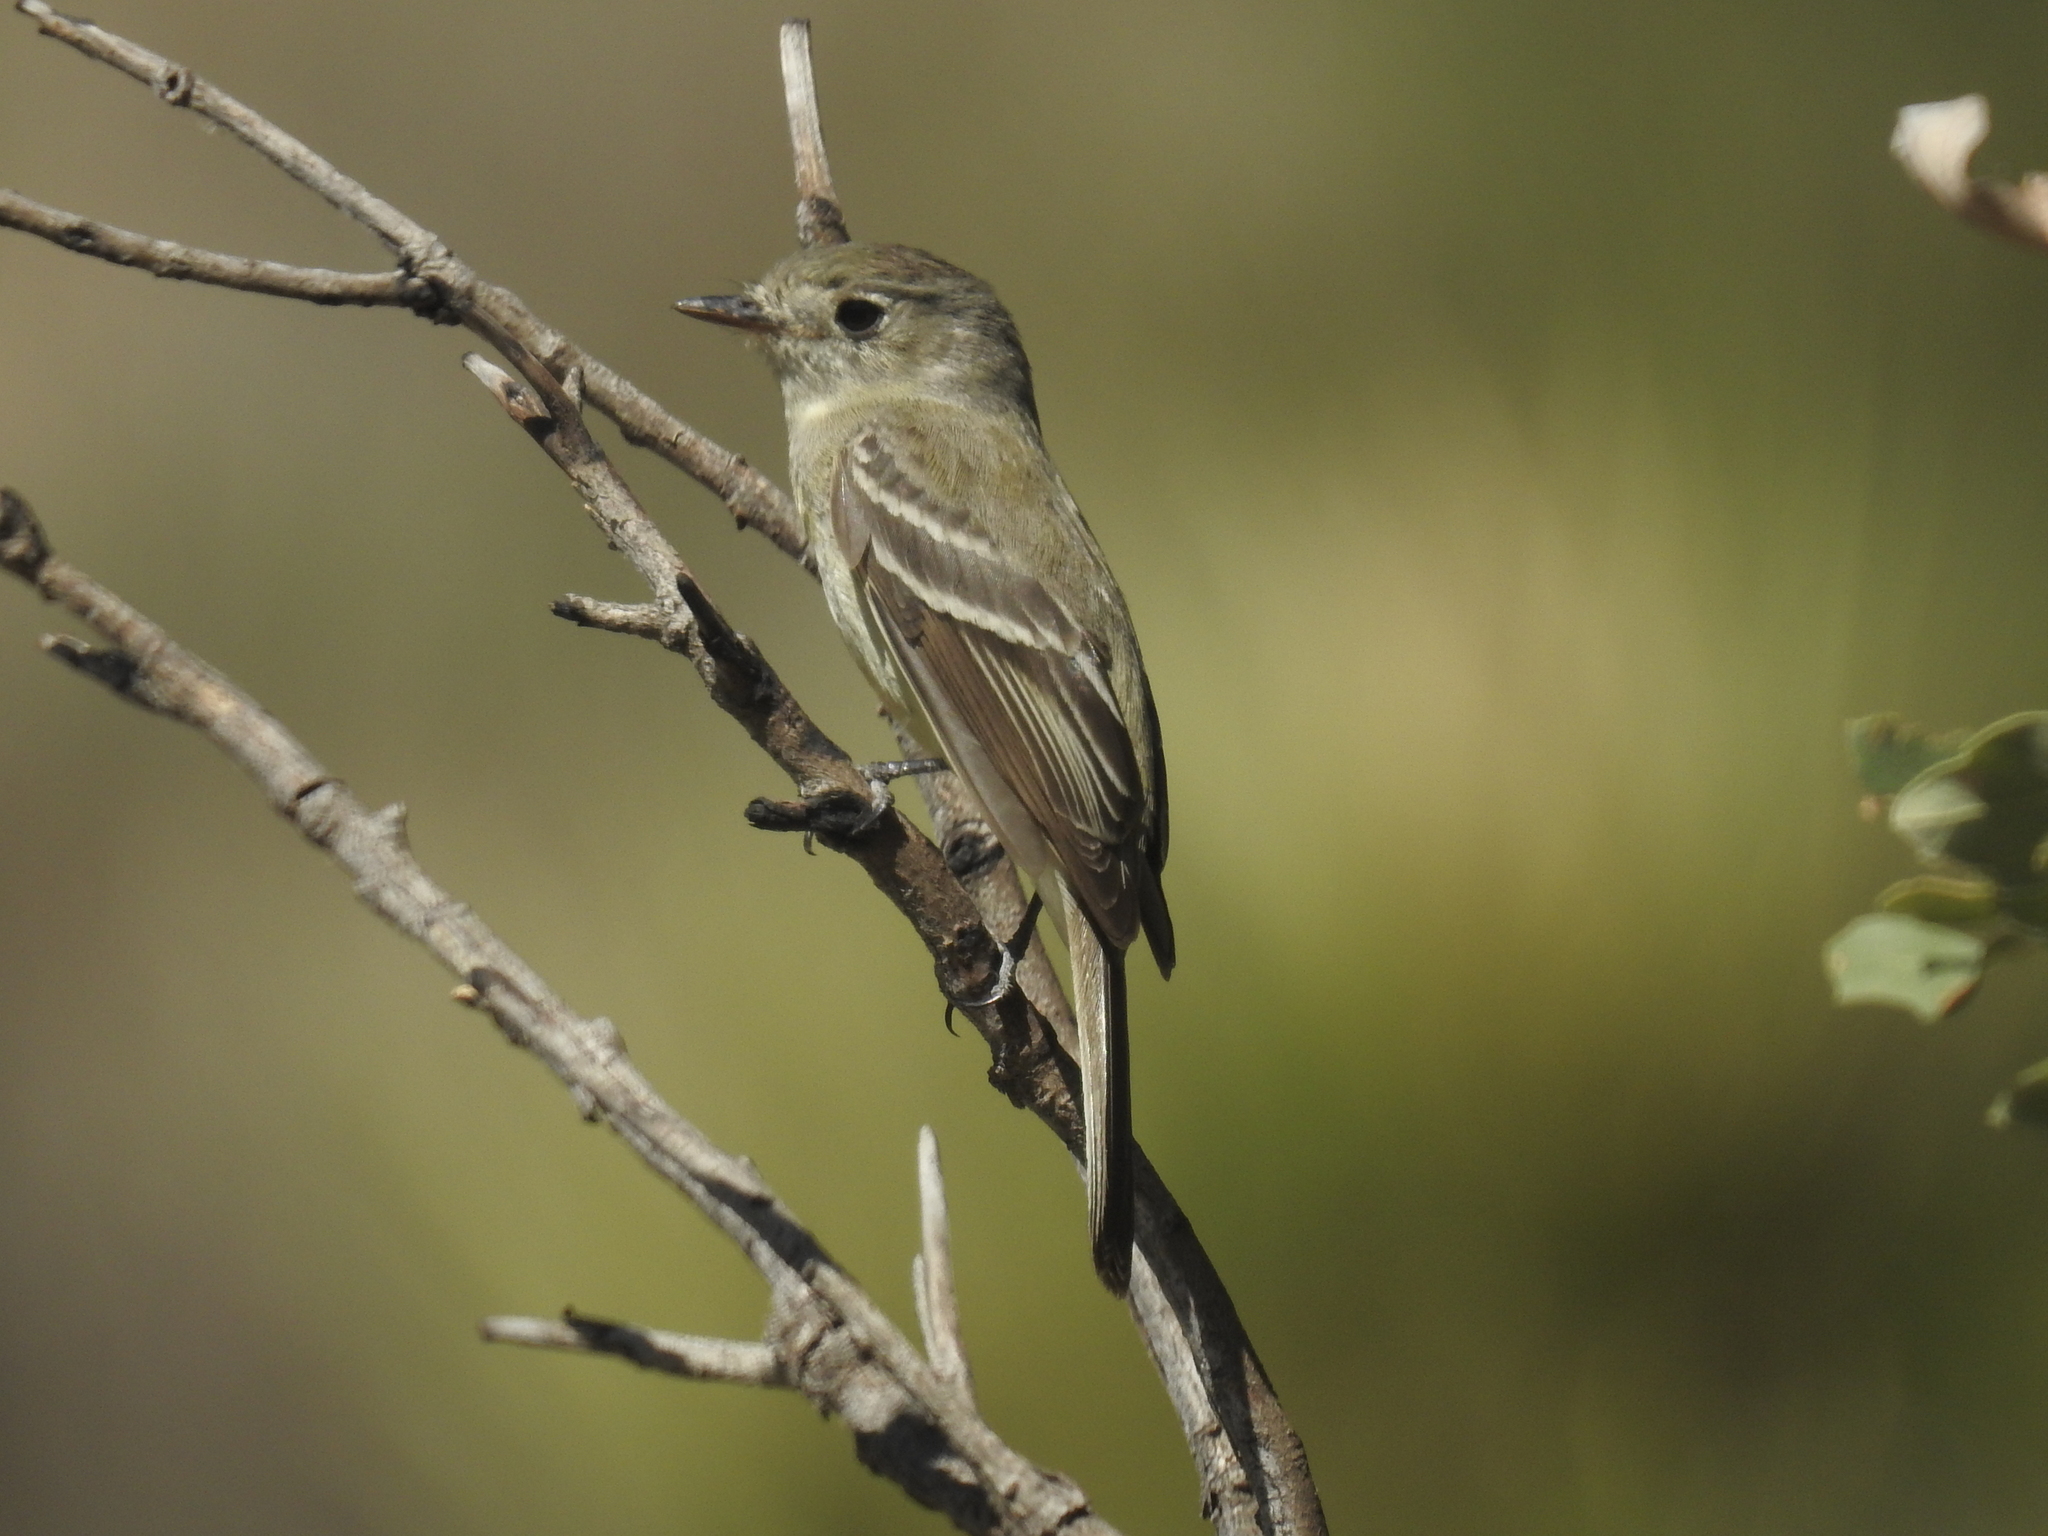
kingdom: Animalia
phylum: Chordata
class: Aves
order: Passeriformes
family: Tyrannidae
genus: Empidonax
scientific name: Empidonax traillii
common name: Willow flycatcher
